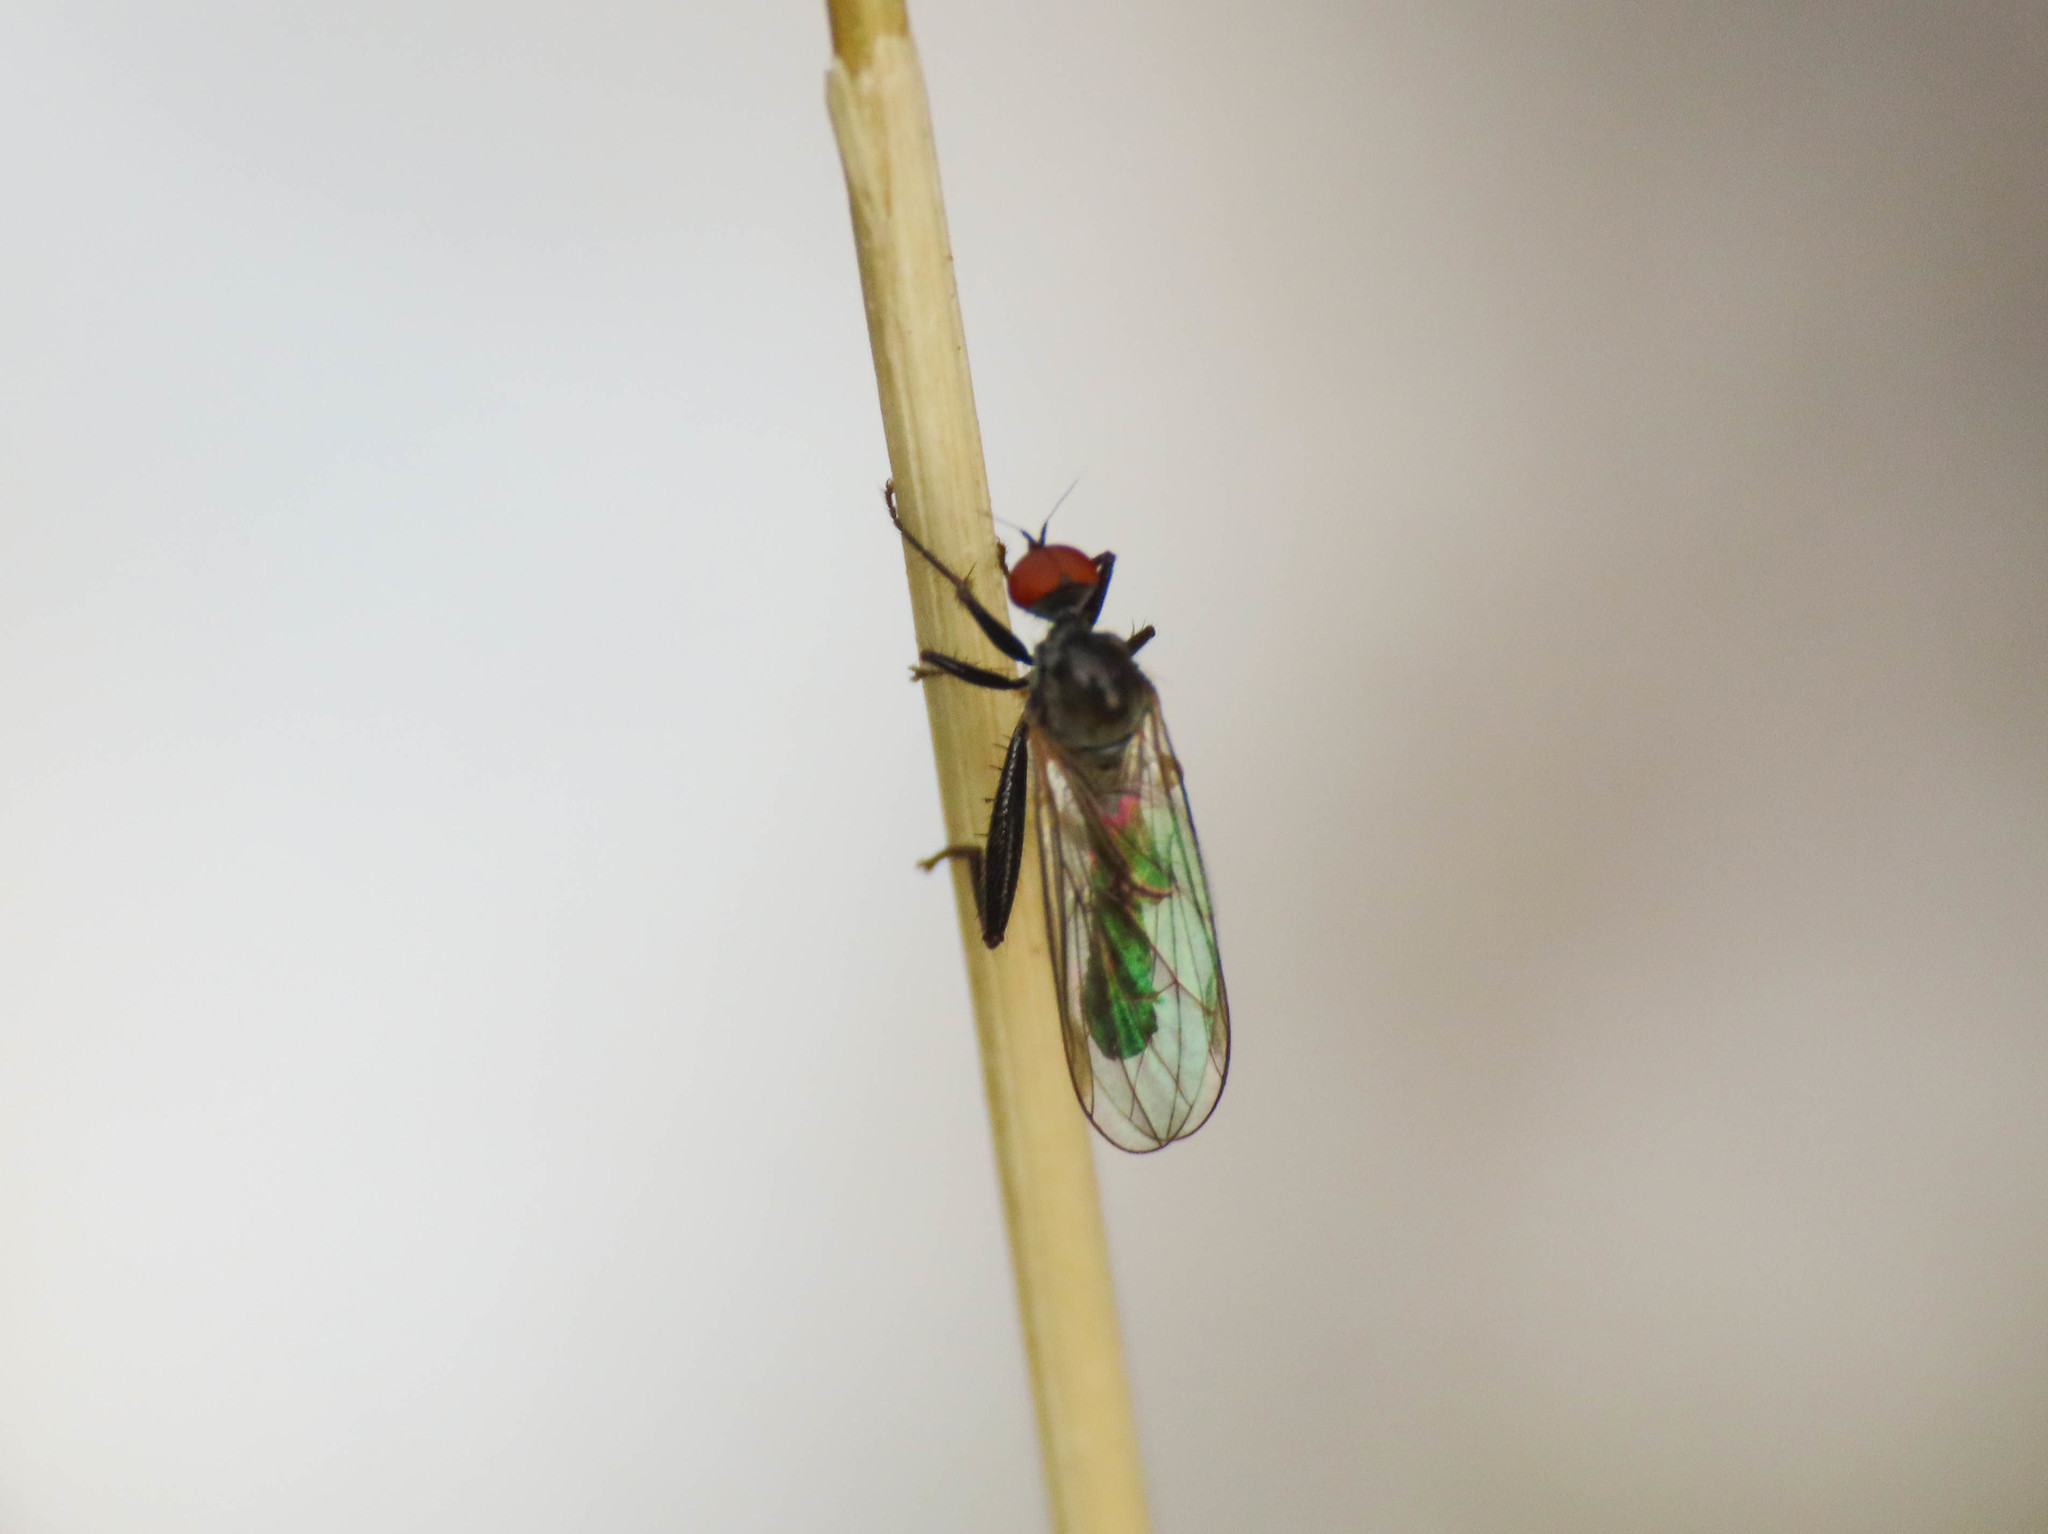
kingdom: Animalia
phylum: Arthropoda
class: Insecta
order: Diptera
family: Hybotidae
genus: Hybos
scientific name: Hybos culiciformis
